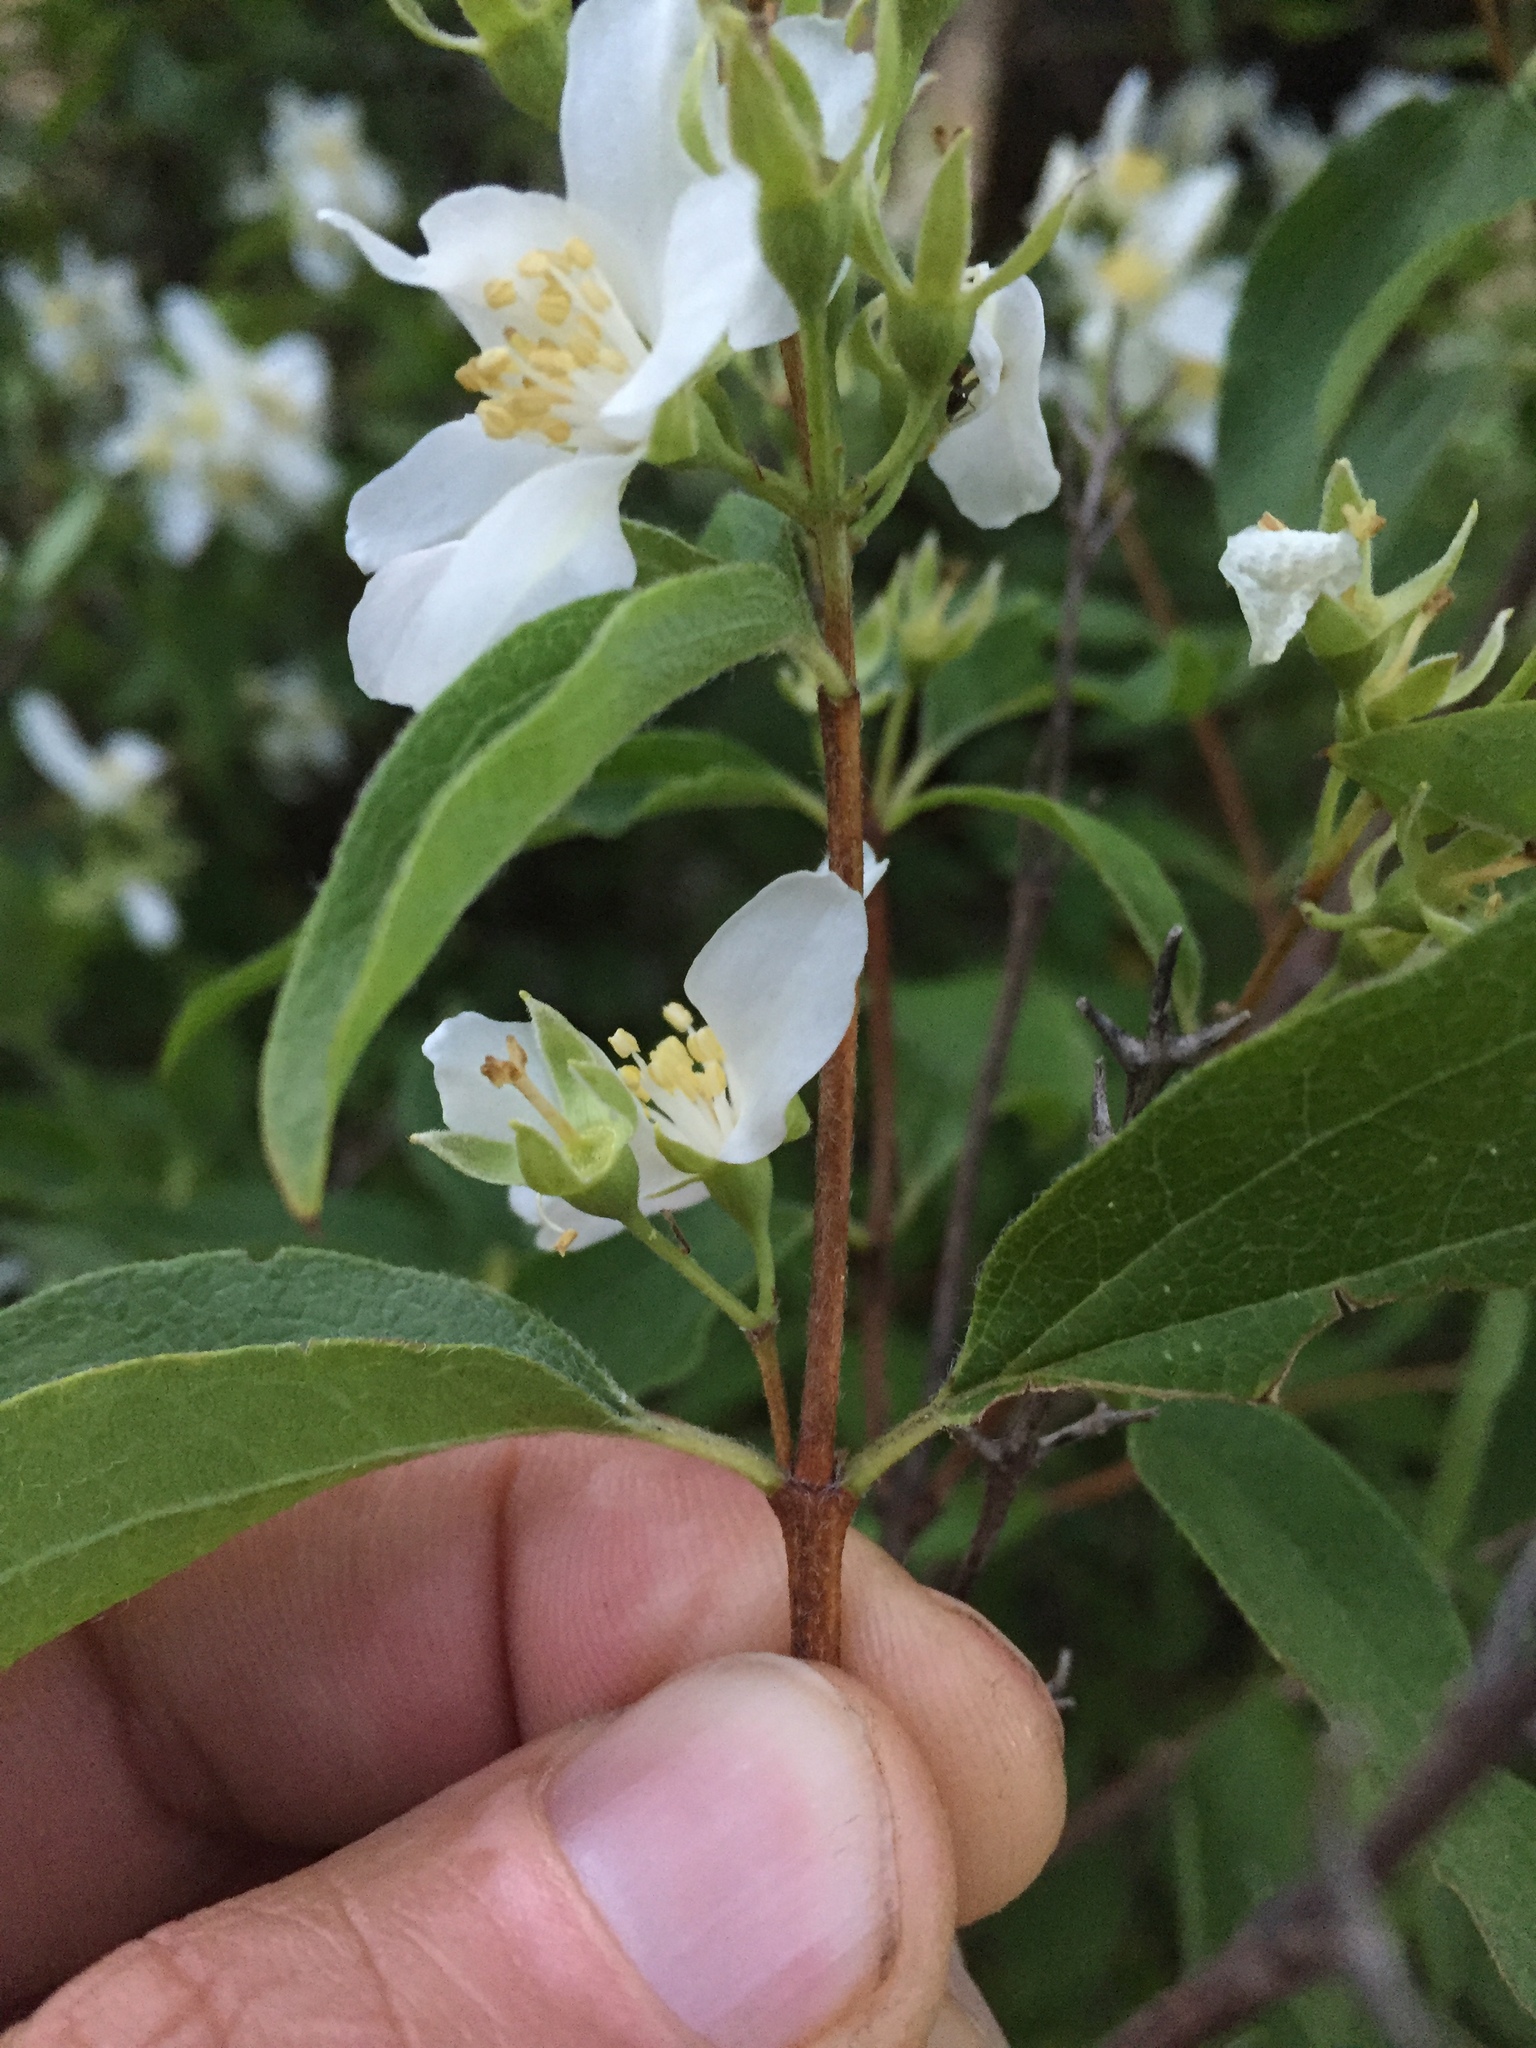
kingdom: Plantae
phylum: Tracheophyta
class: Magnoliopsida
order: Cornales
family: Hydrangeaceae
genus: Philadelphus
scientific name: Philadelphus lewisii
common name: Lewis's mock orange
